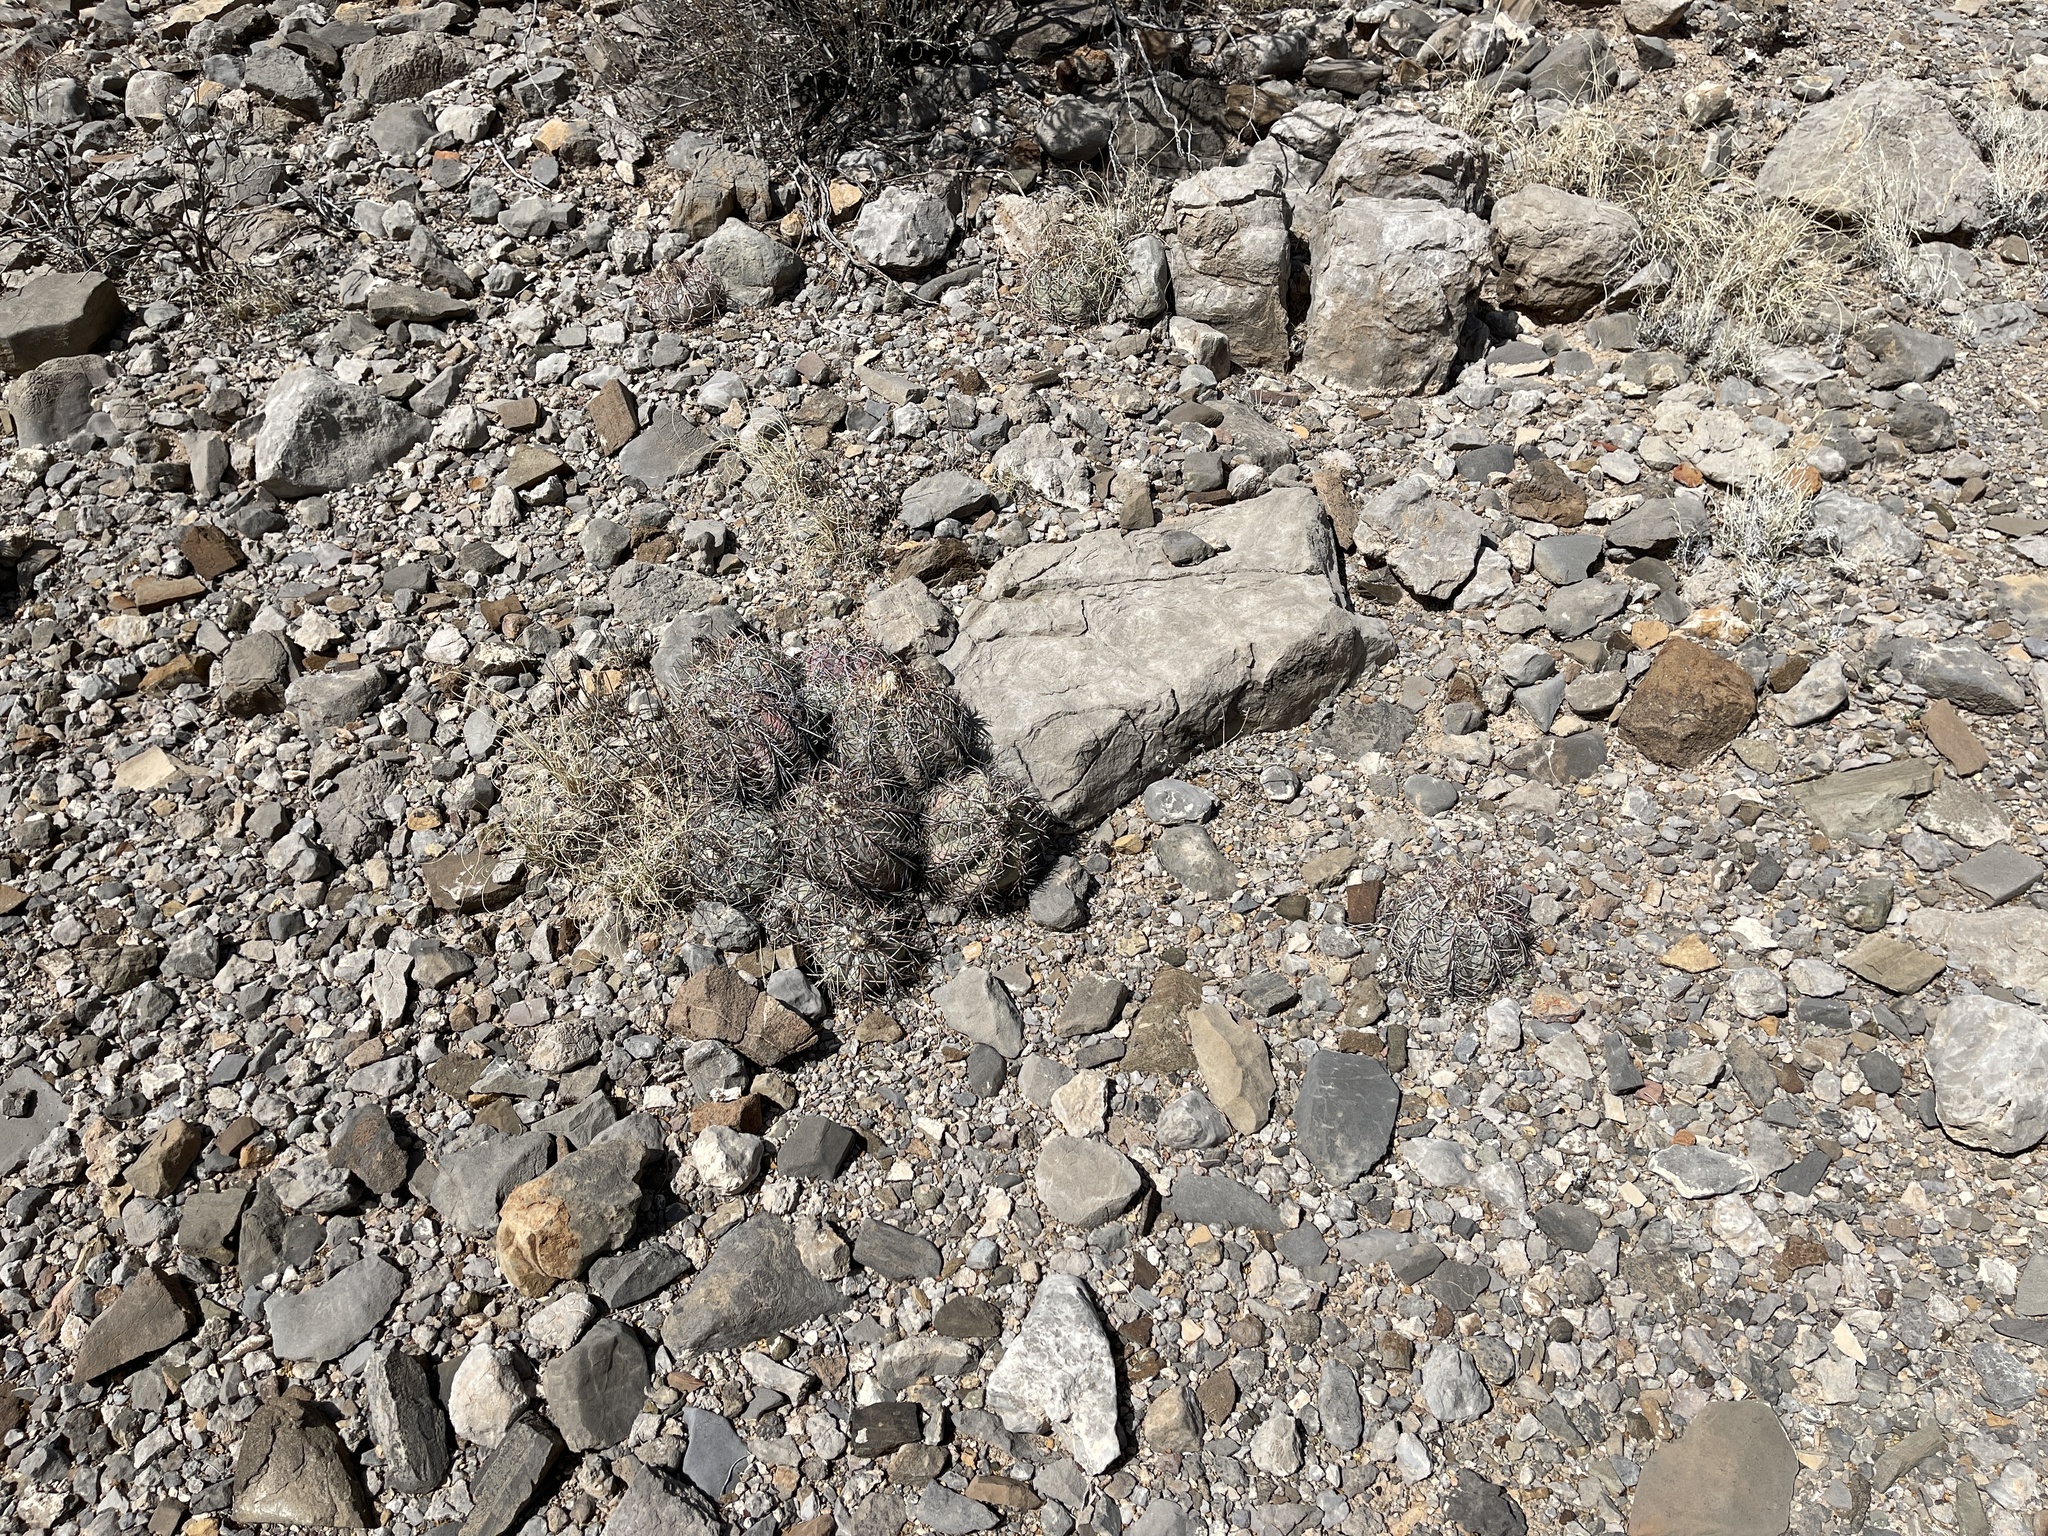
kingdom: Plantae
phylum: Tracheophyta
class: Magnoliopsida
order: Caryophyllales
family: Cactaceae
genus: Echinocactus
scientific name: Echinocactus horizonthalonius
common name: Devilshead
